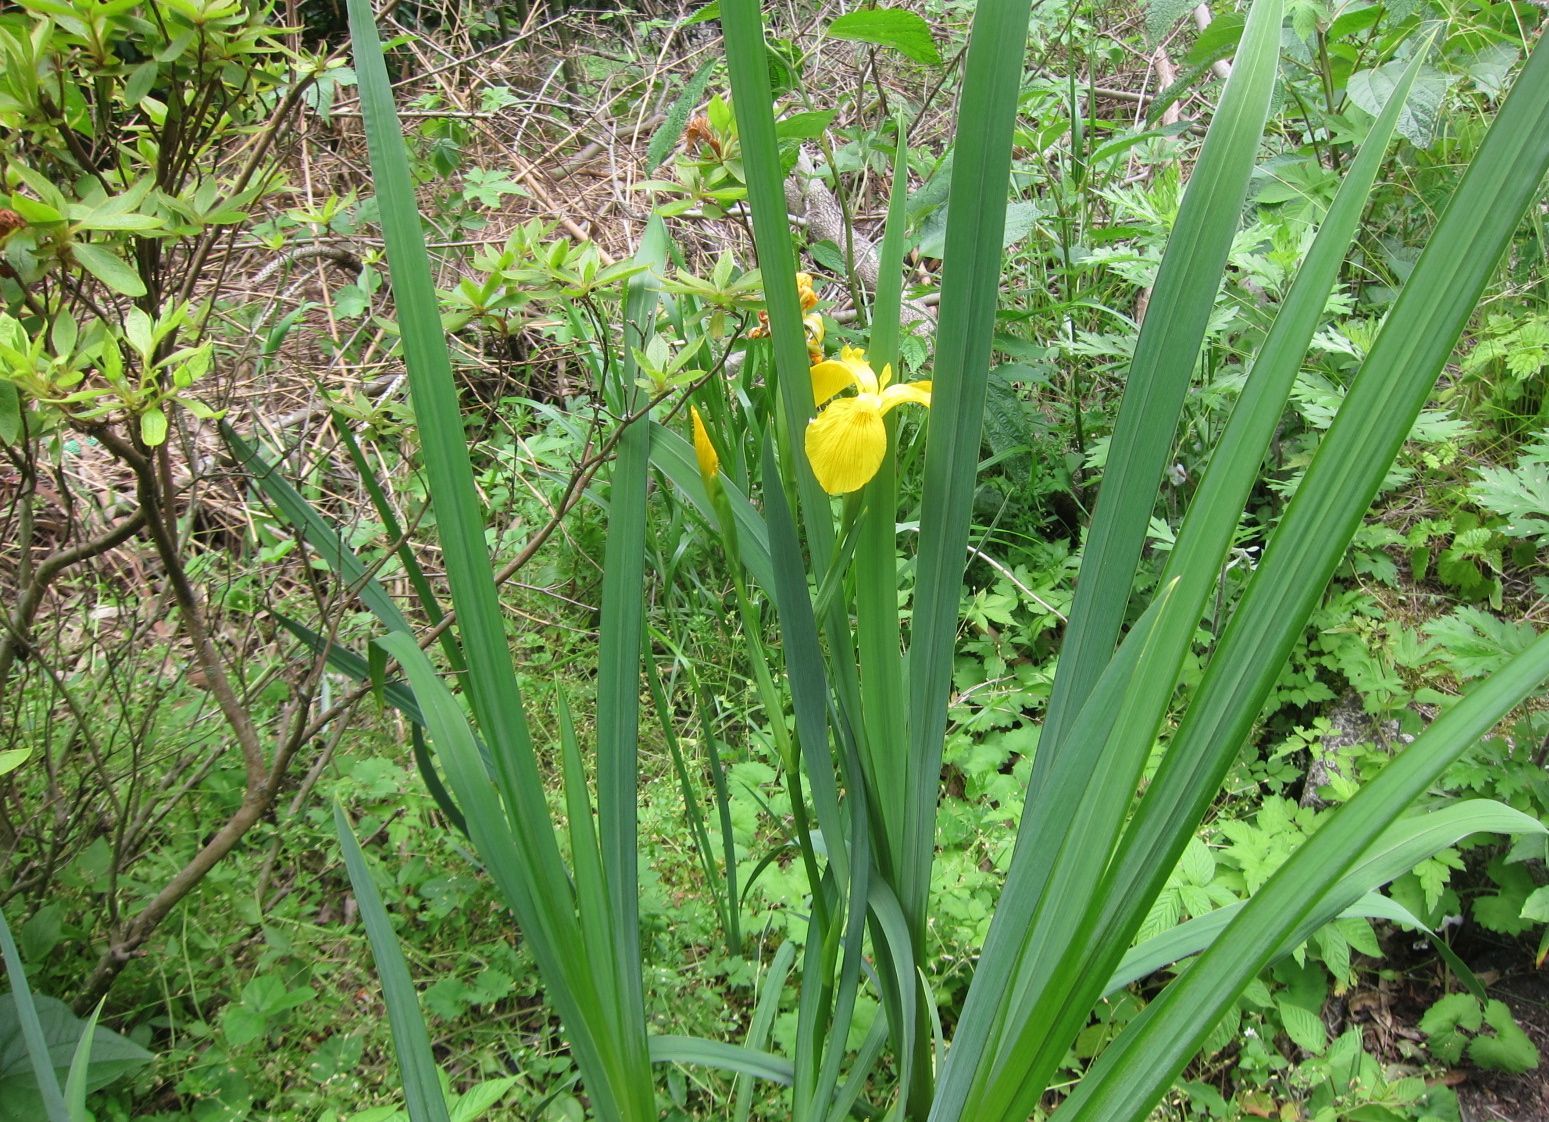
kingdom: Plantae
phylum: Tracheophyta
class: Liliopsida
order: Asparagales
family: Iridaceae
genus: Iris
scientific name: Iris pseudacorus
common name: Yellow flag
